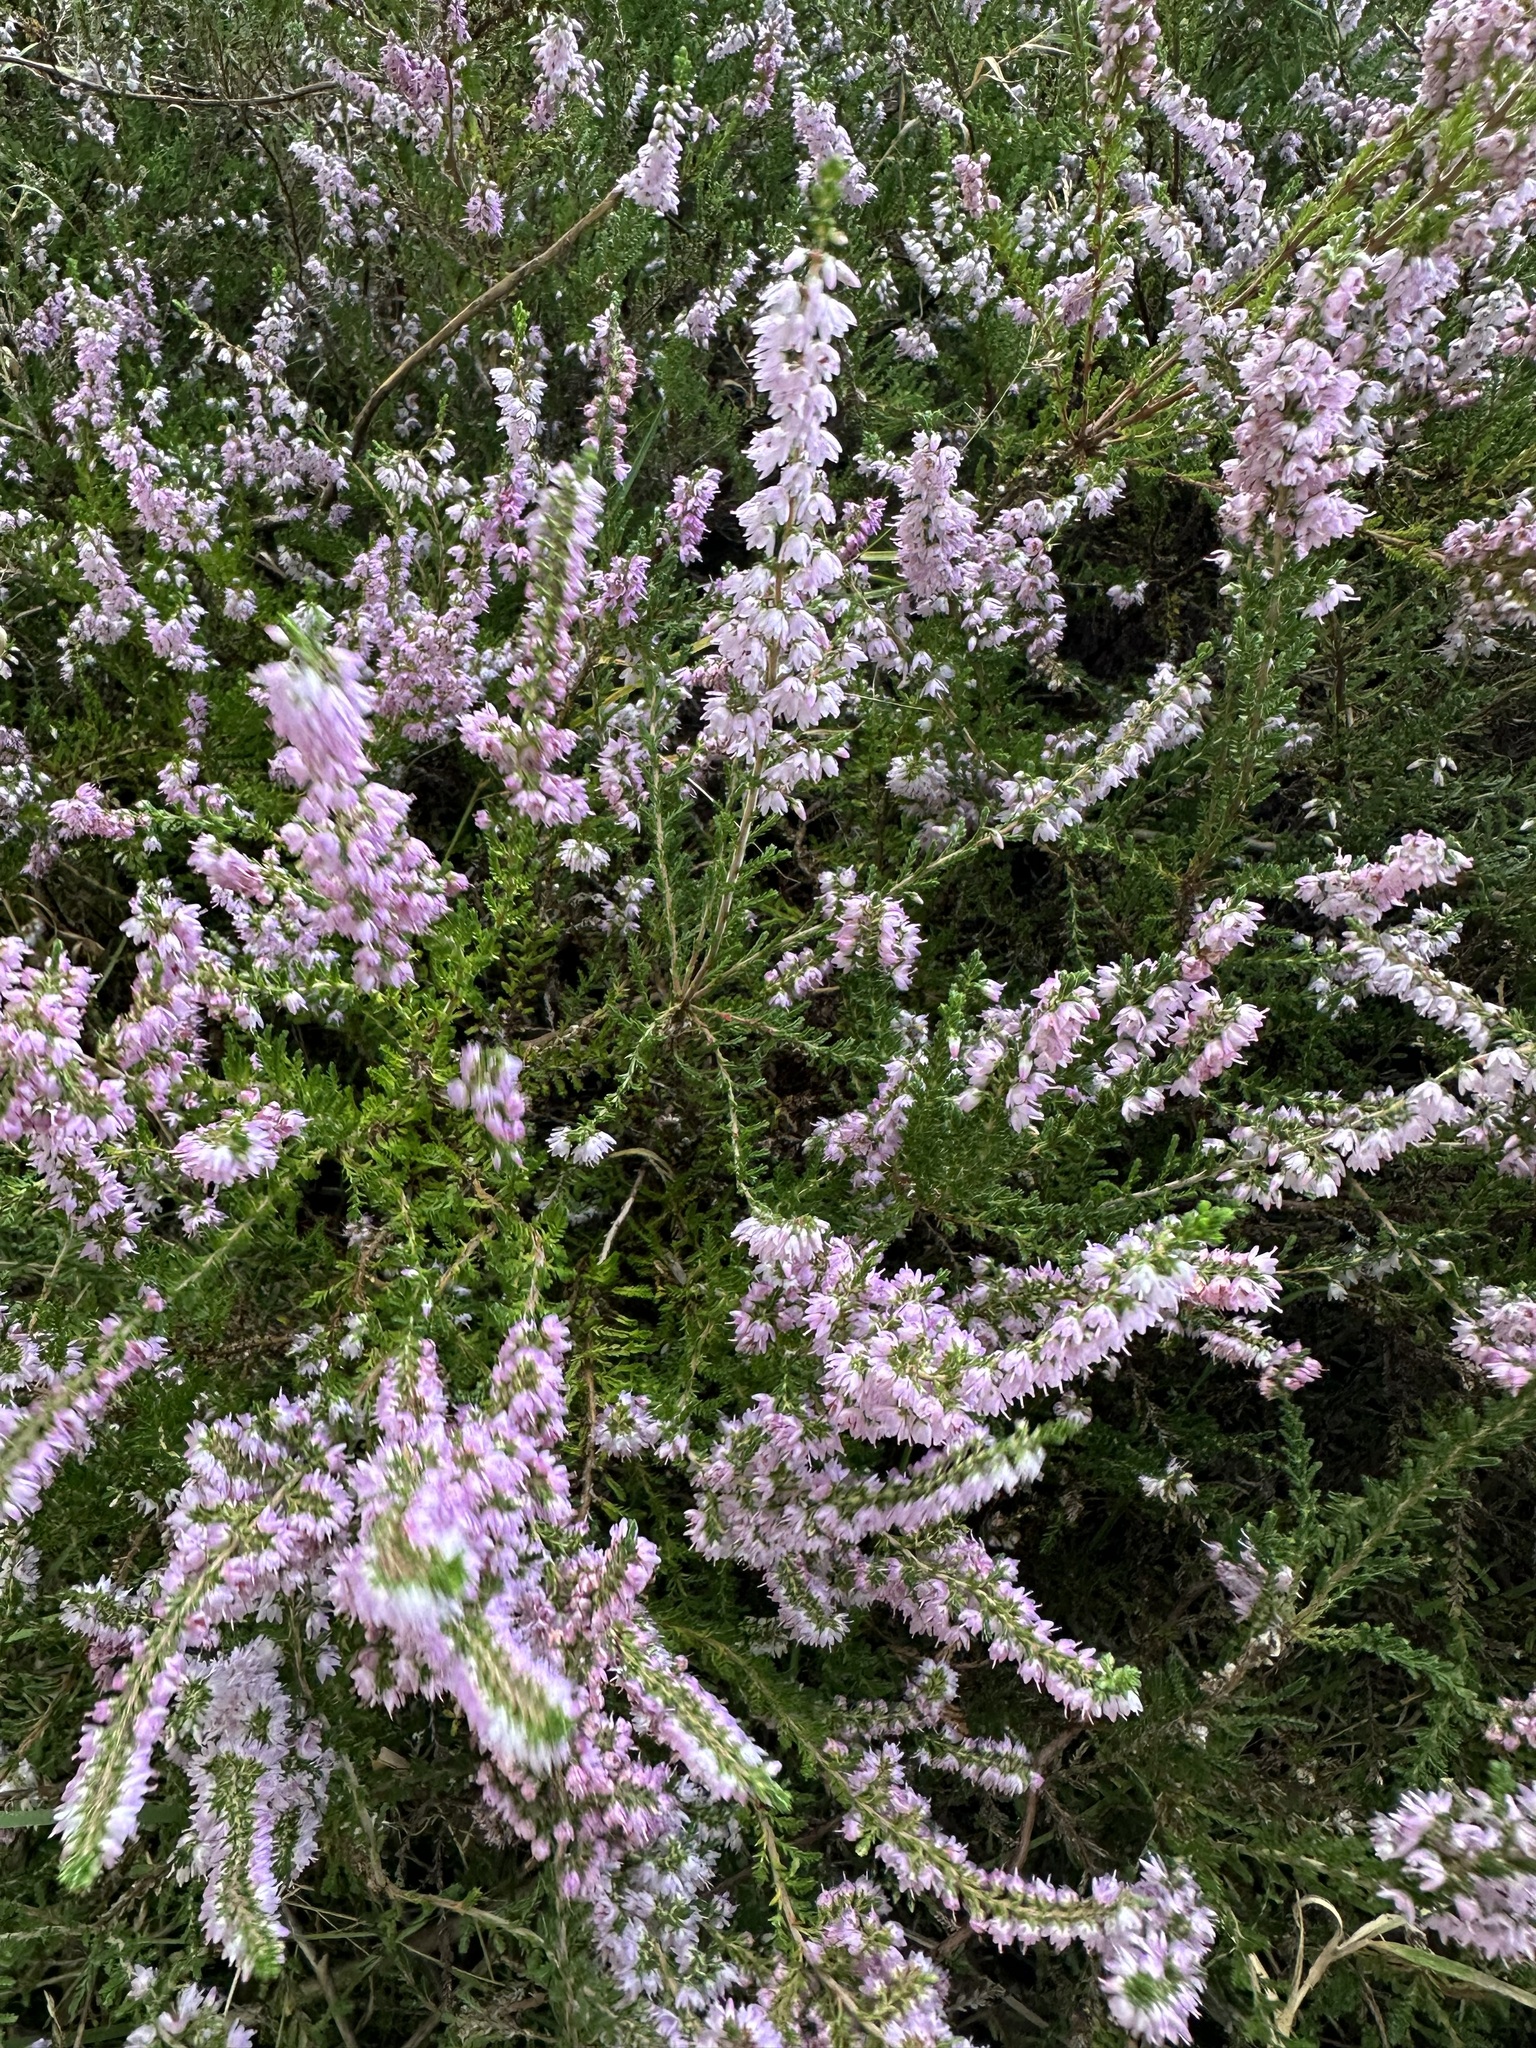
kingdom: Plantae
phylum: Tracheophyta
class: Magnoliopsida
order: Ericales
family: Ericaceae
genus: Calluna
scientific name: Calluna vulgaris
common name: Heather
